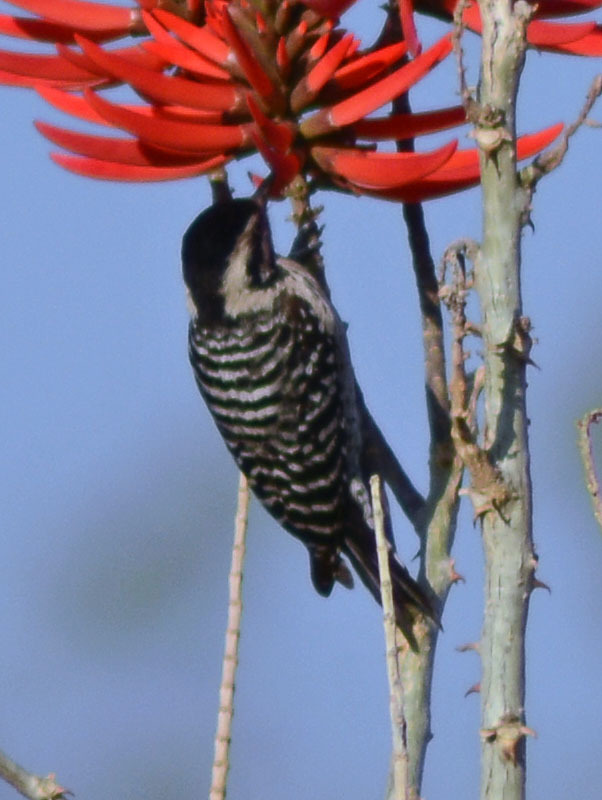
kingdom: Animalia
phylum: Chordata
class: Aves
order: Piciformes
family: Picidae
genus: Dryobates
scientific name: Dryobates scalaris
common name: Ladder-backed woodpecker
